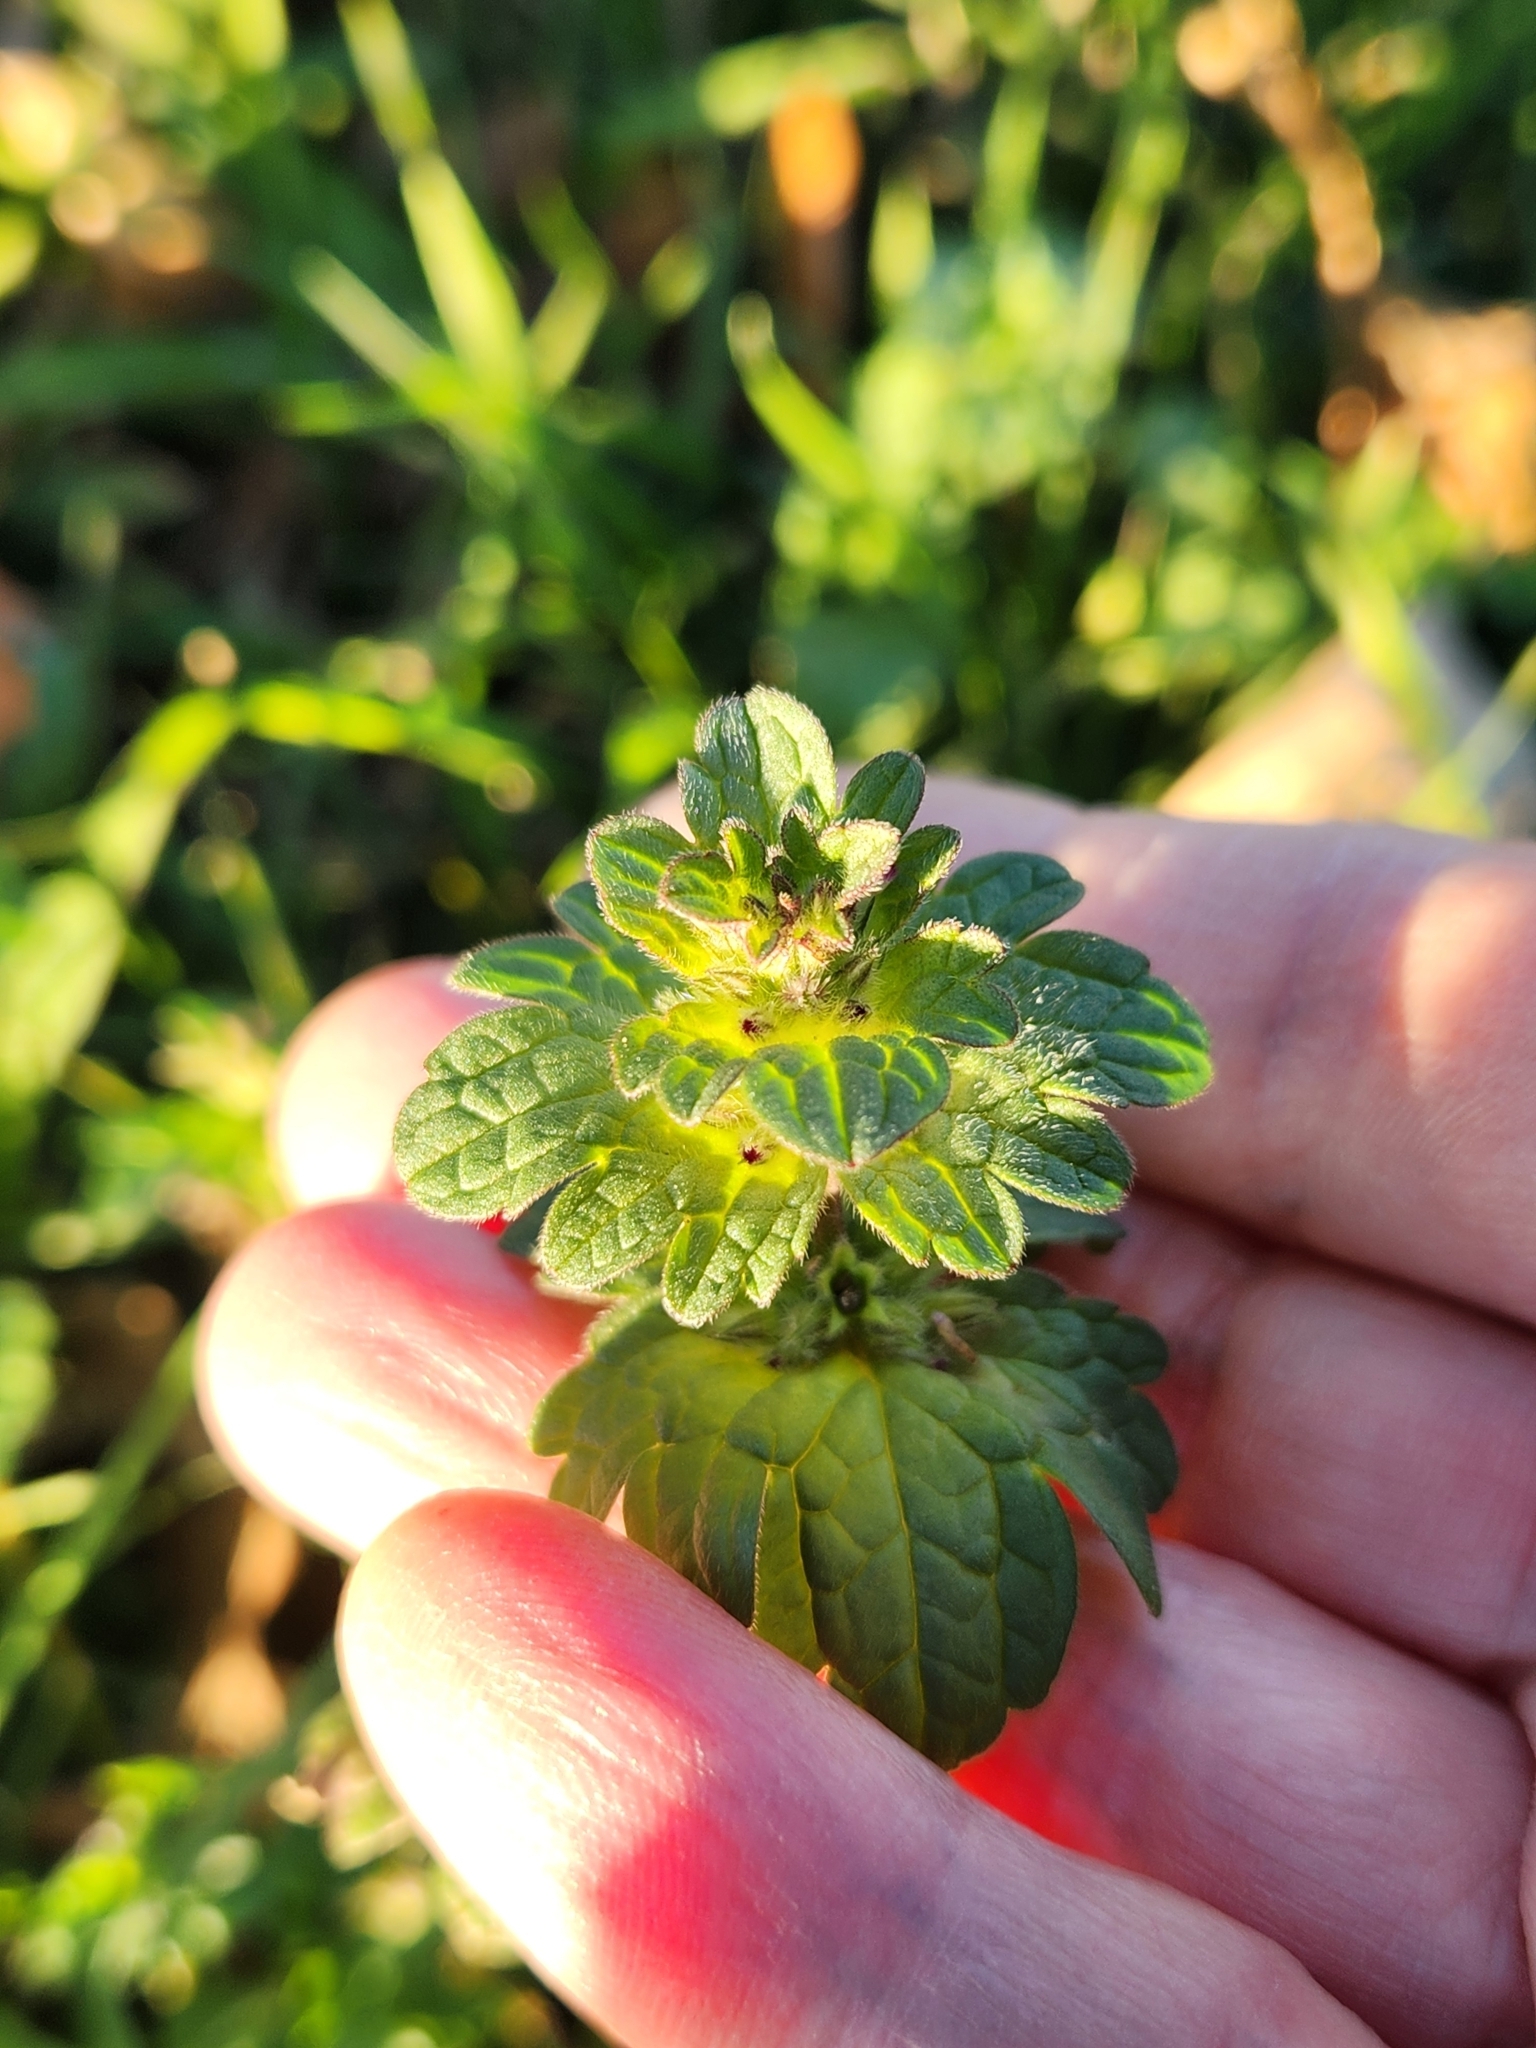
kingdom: Plantae
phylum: Tracheophyta
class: Magnoliopsida
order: Lamiales
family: Lamiaceae
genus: Lamium
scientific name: Lamium amplexicaule
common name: Henbit dead-nettle
